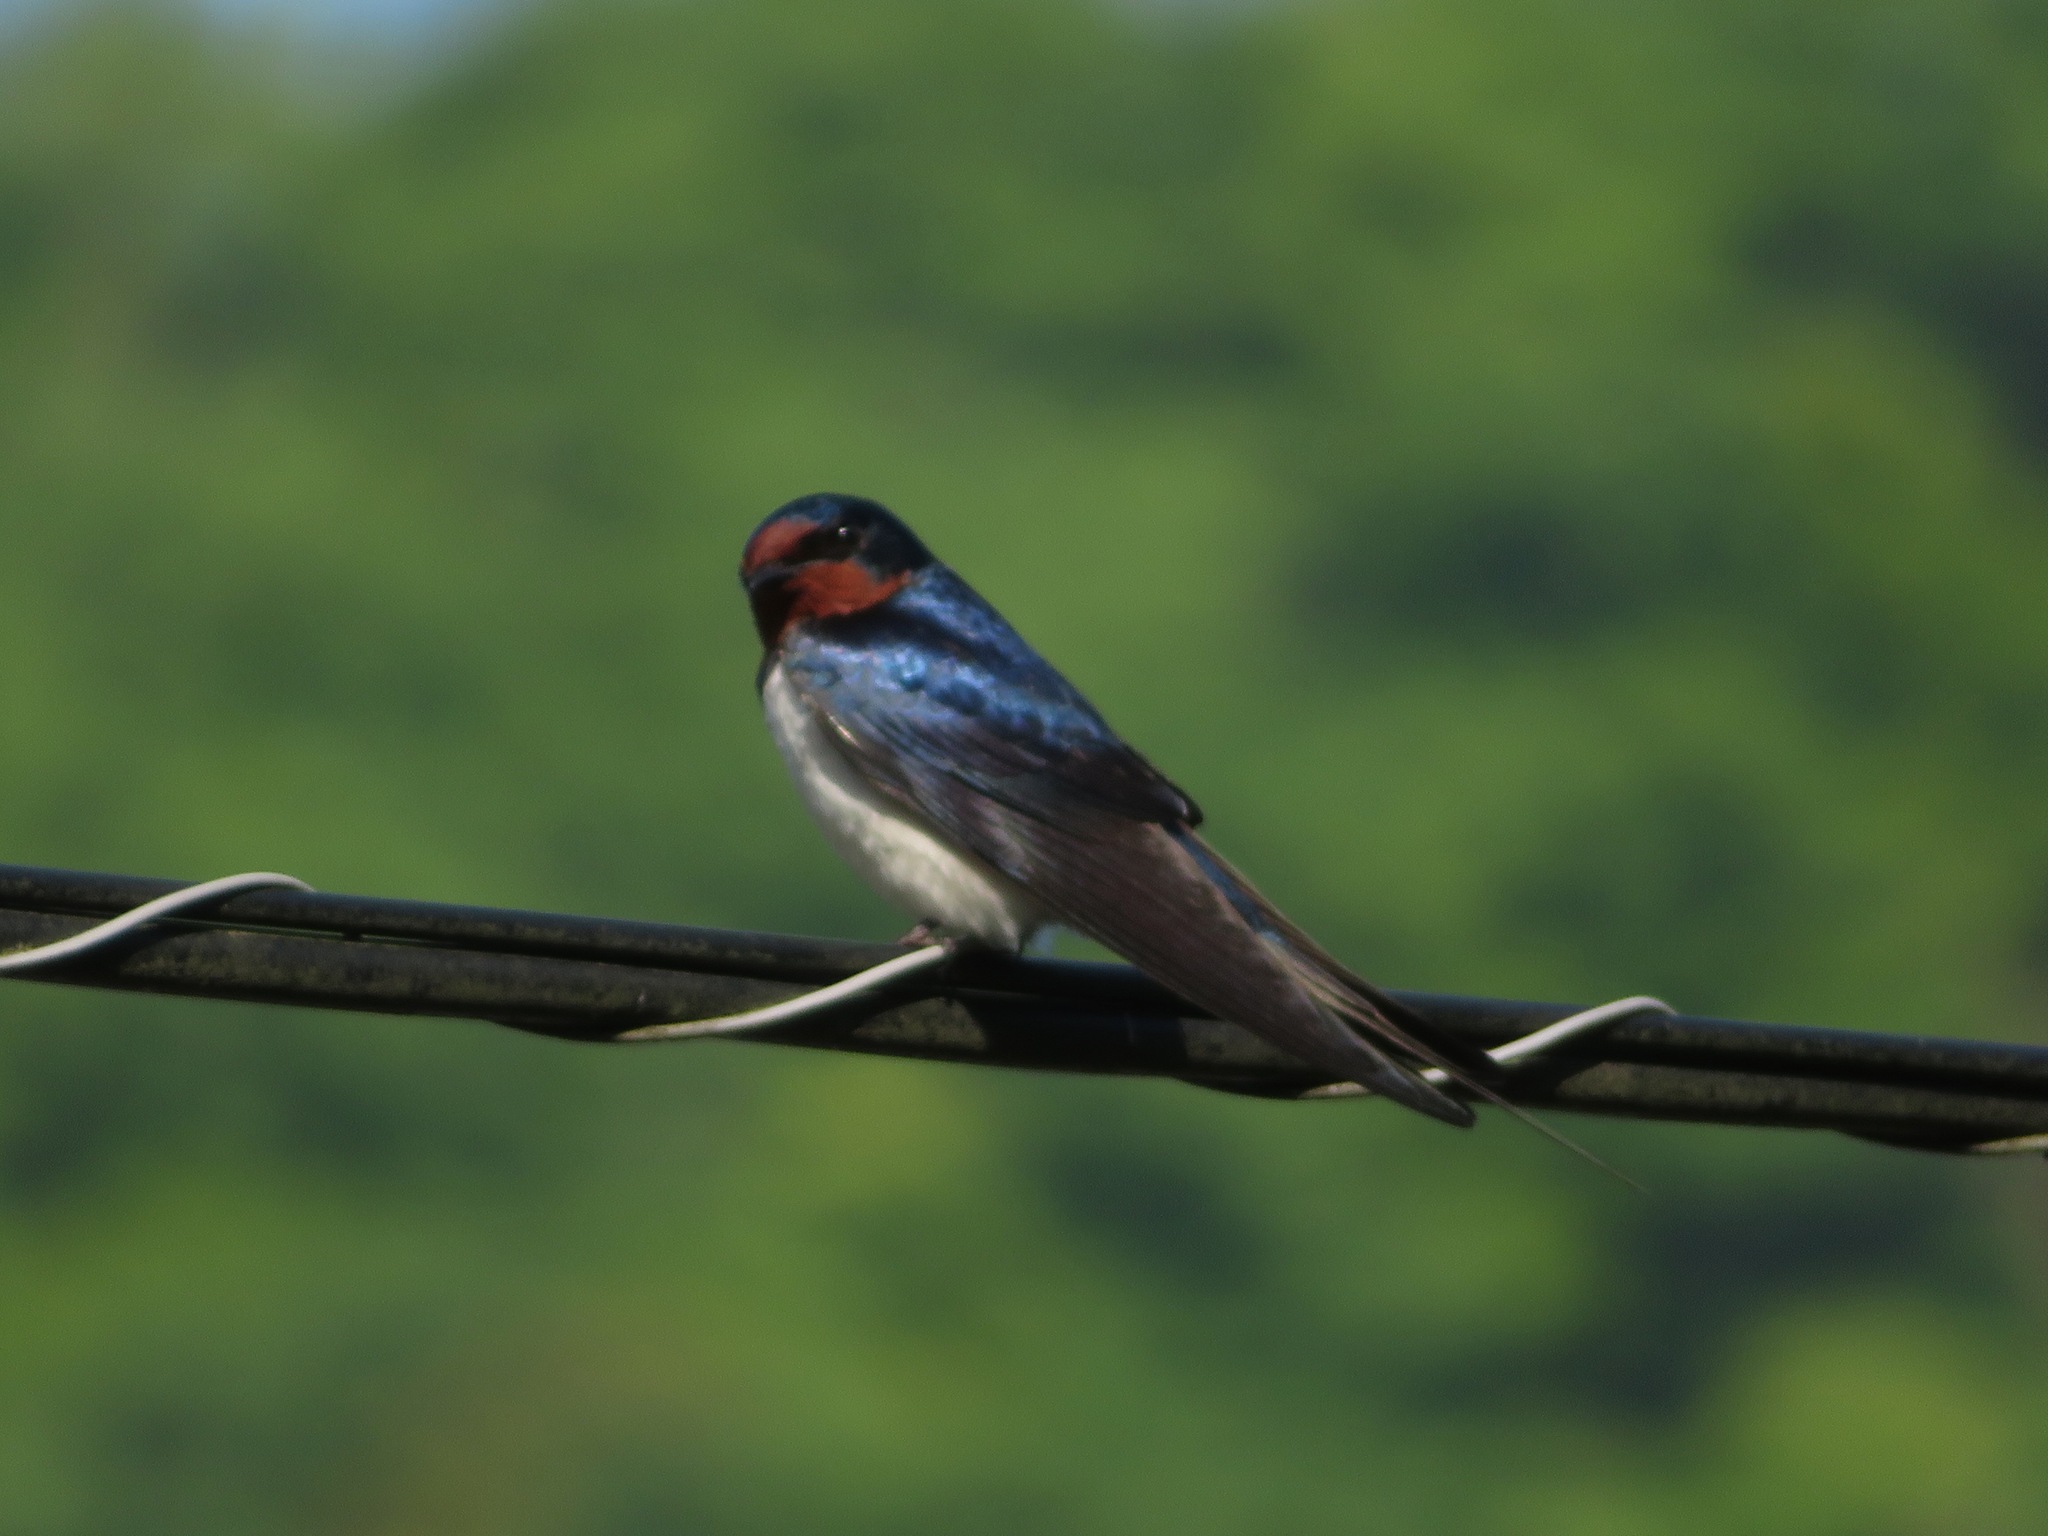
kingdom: Animalia
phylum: Chordata
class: Aves
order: Passeriformes
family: Hirundinidae
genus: Hirundo
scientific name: Hirundo rustica
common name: Barn swallow
